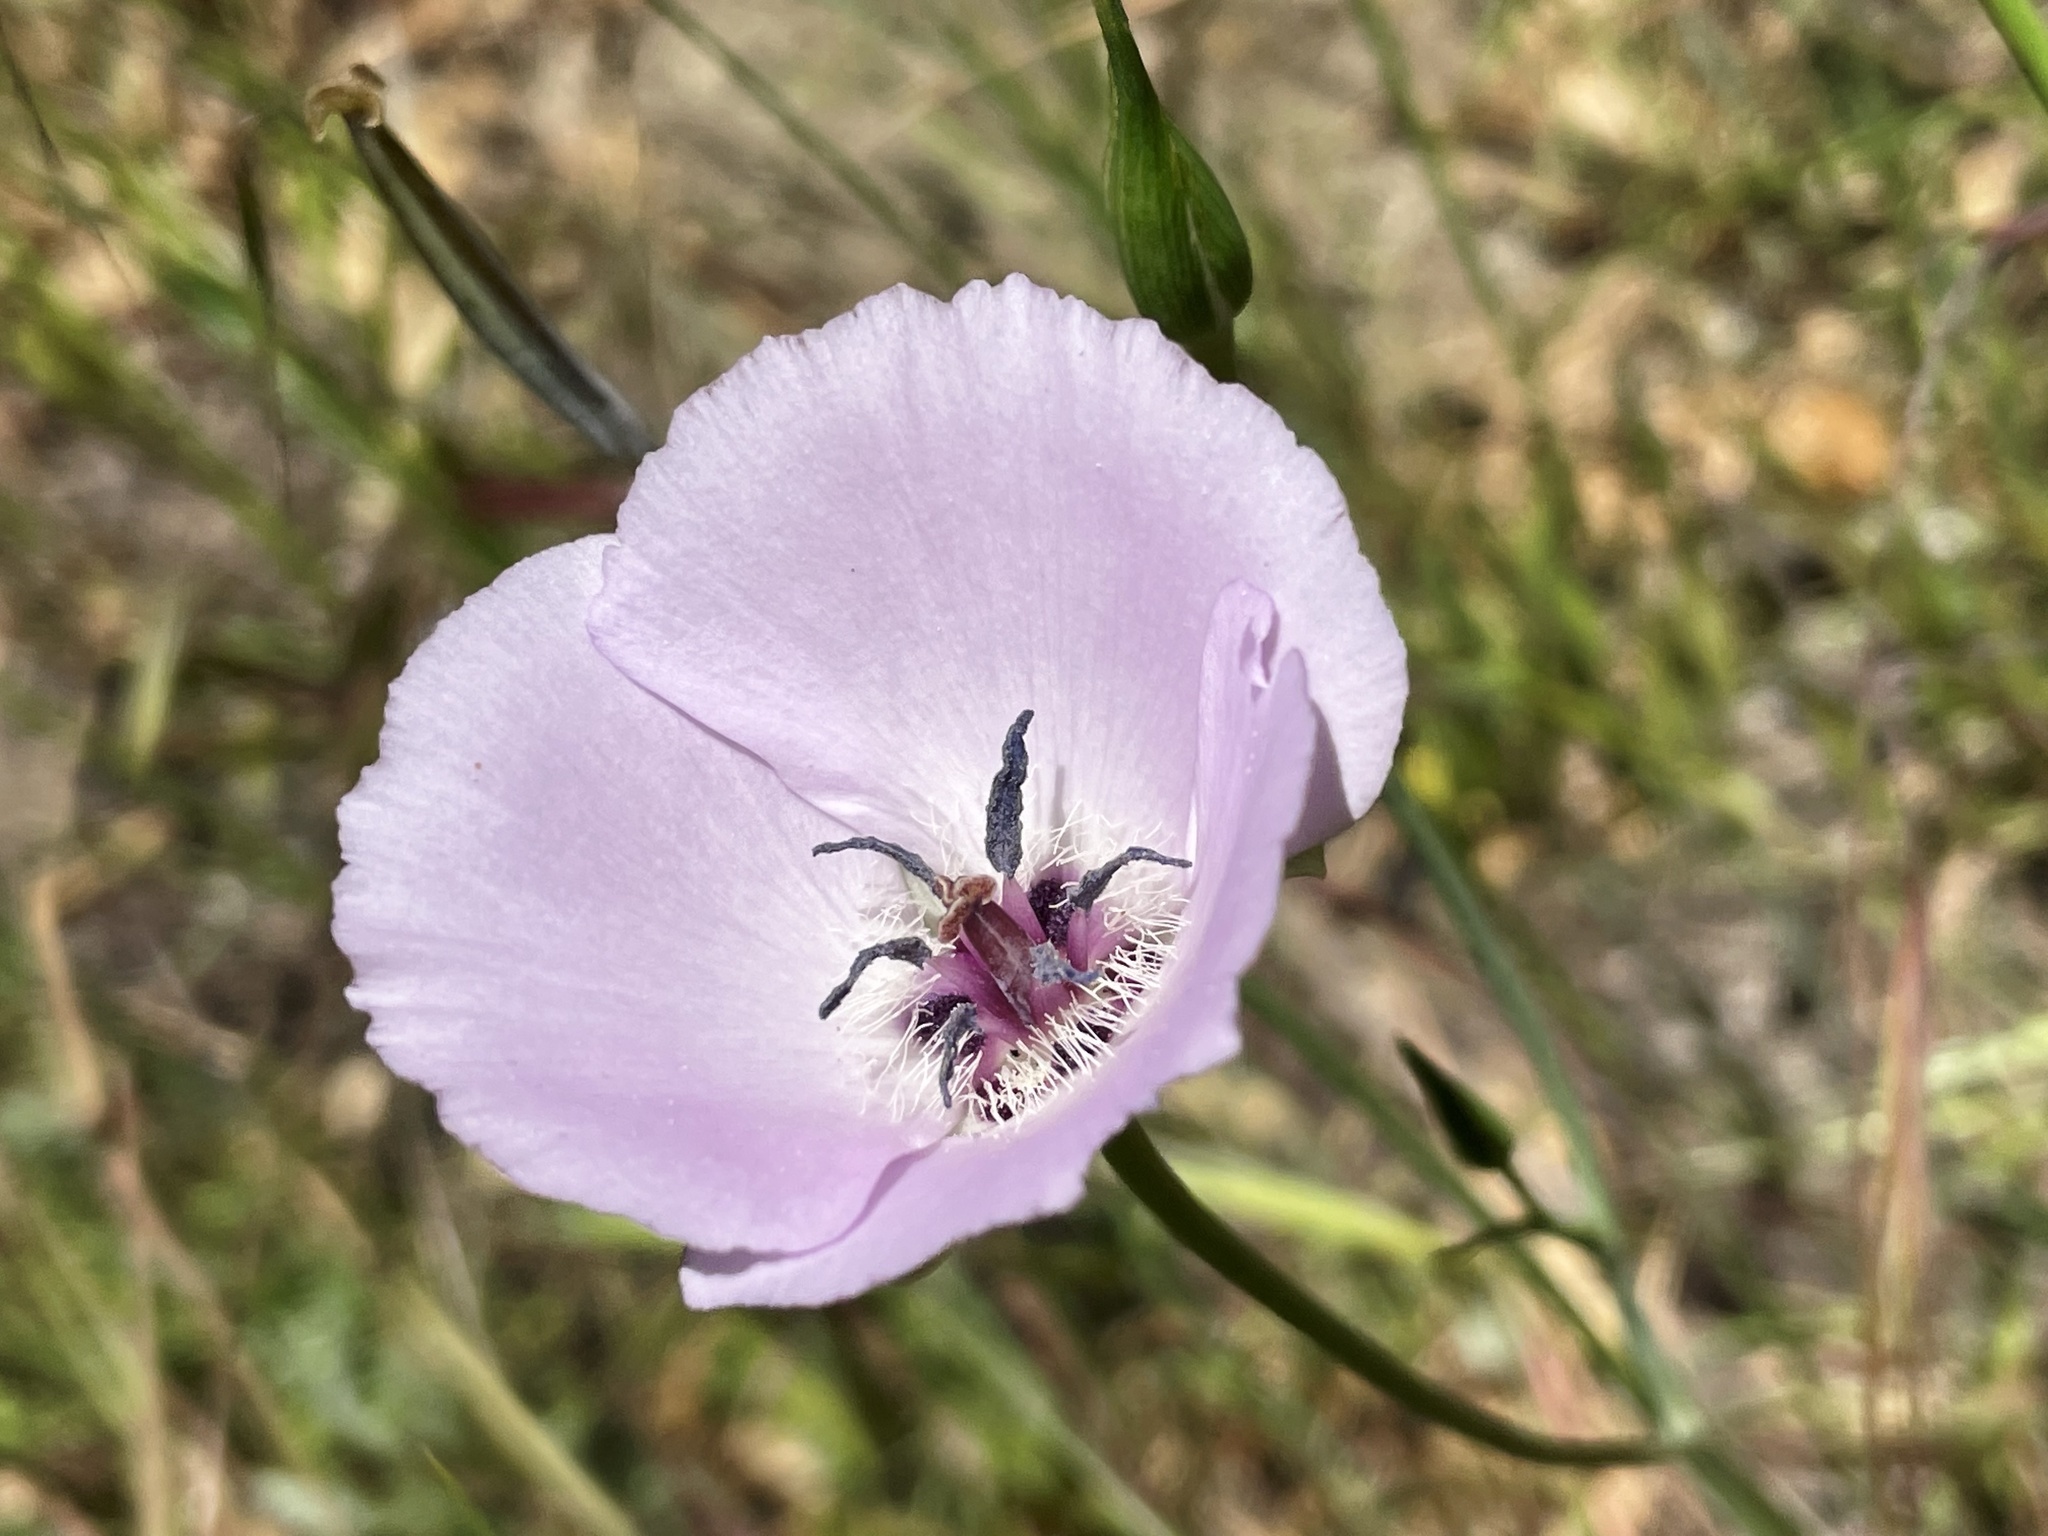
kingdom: Plantae
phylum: Tracheophyta
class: Liliopsida
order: Liliales
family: Liliaceae
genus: Calochortus
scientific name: Calochortus splendens
